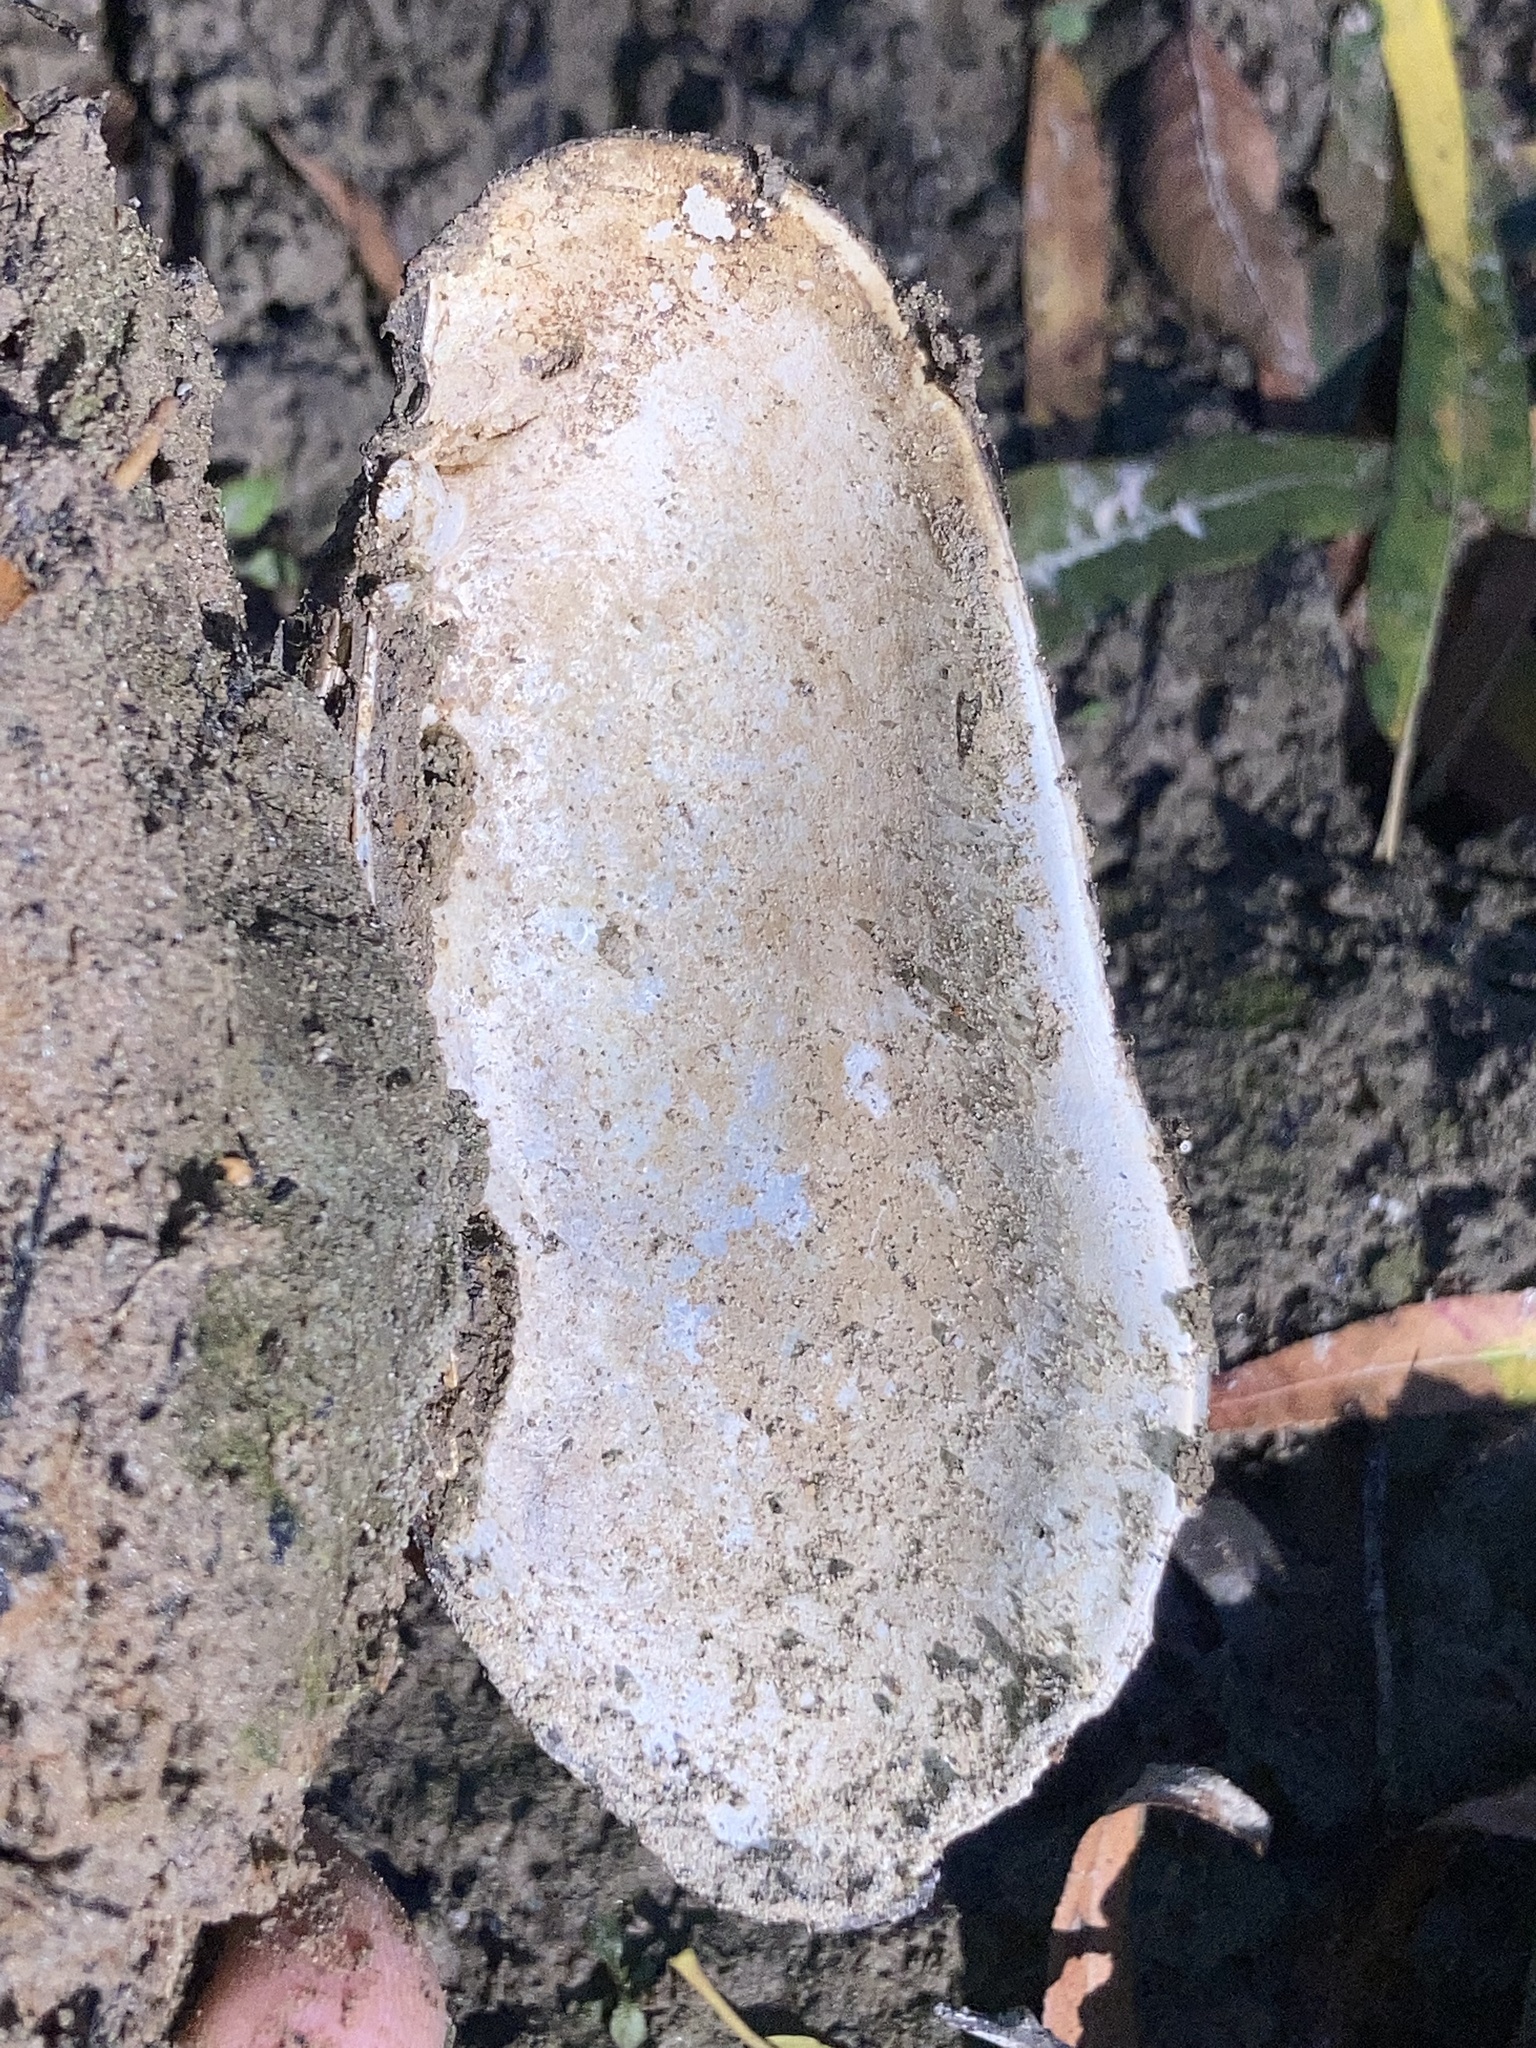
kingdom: Animalia
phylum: Mollusca
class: Bivalvia
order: Unionida
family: Unionidae
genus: Lampsilis
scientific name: Lampsilis teres
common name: Yellow sandshell
